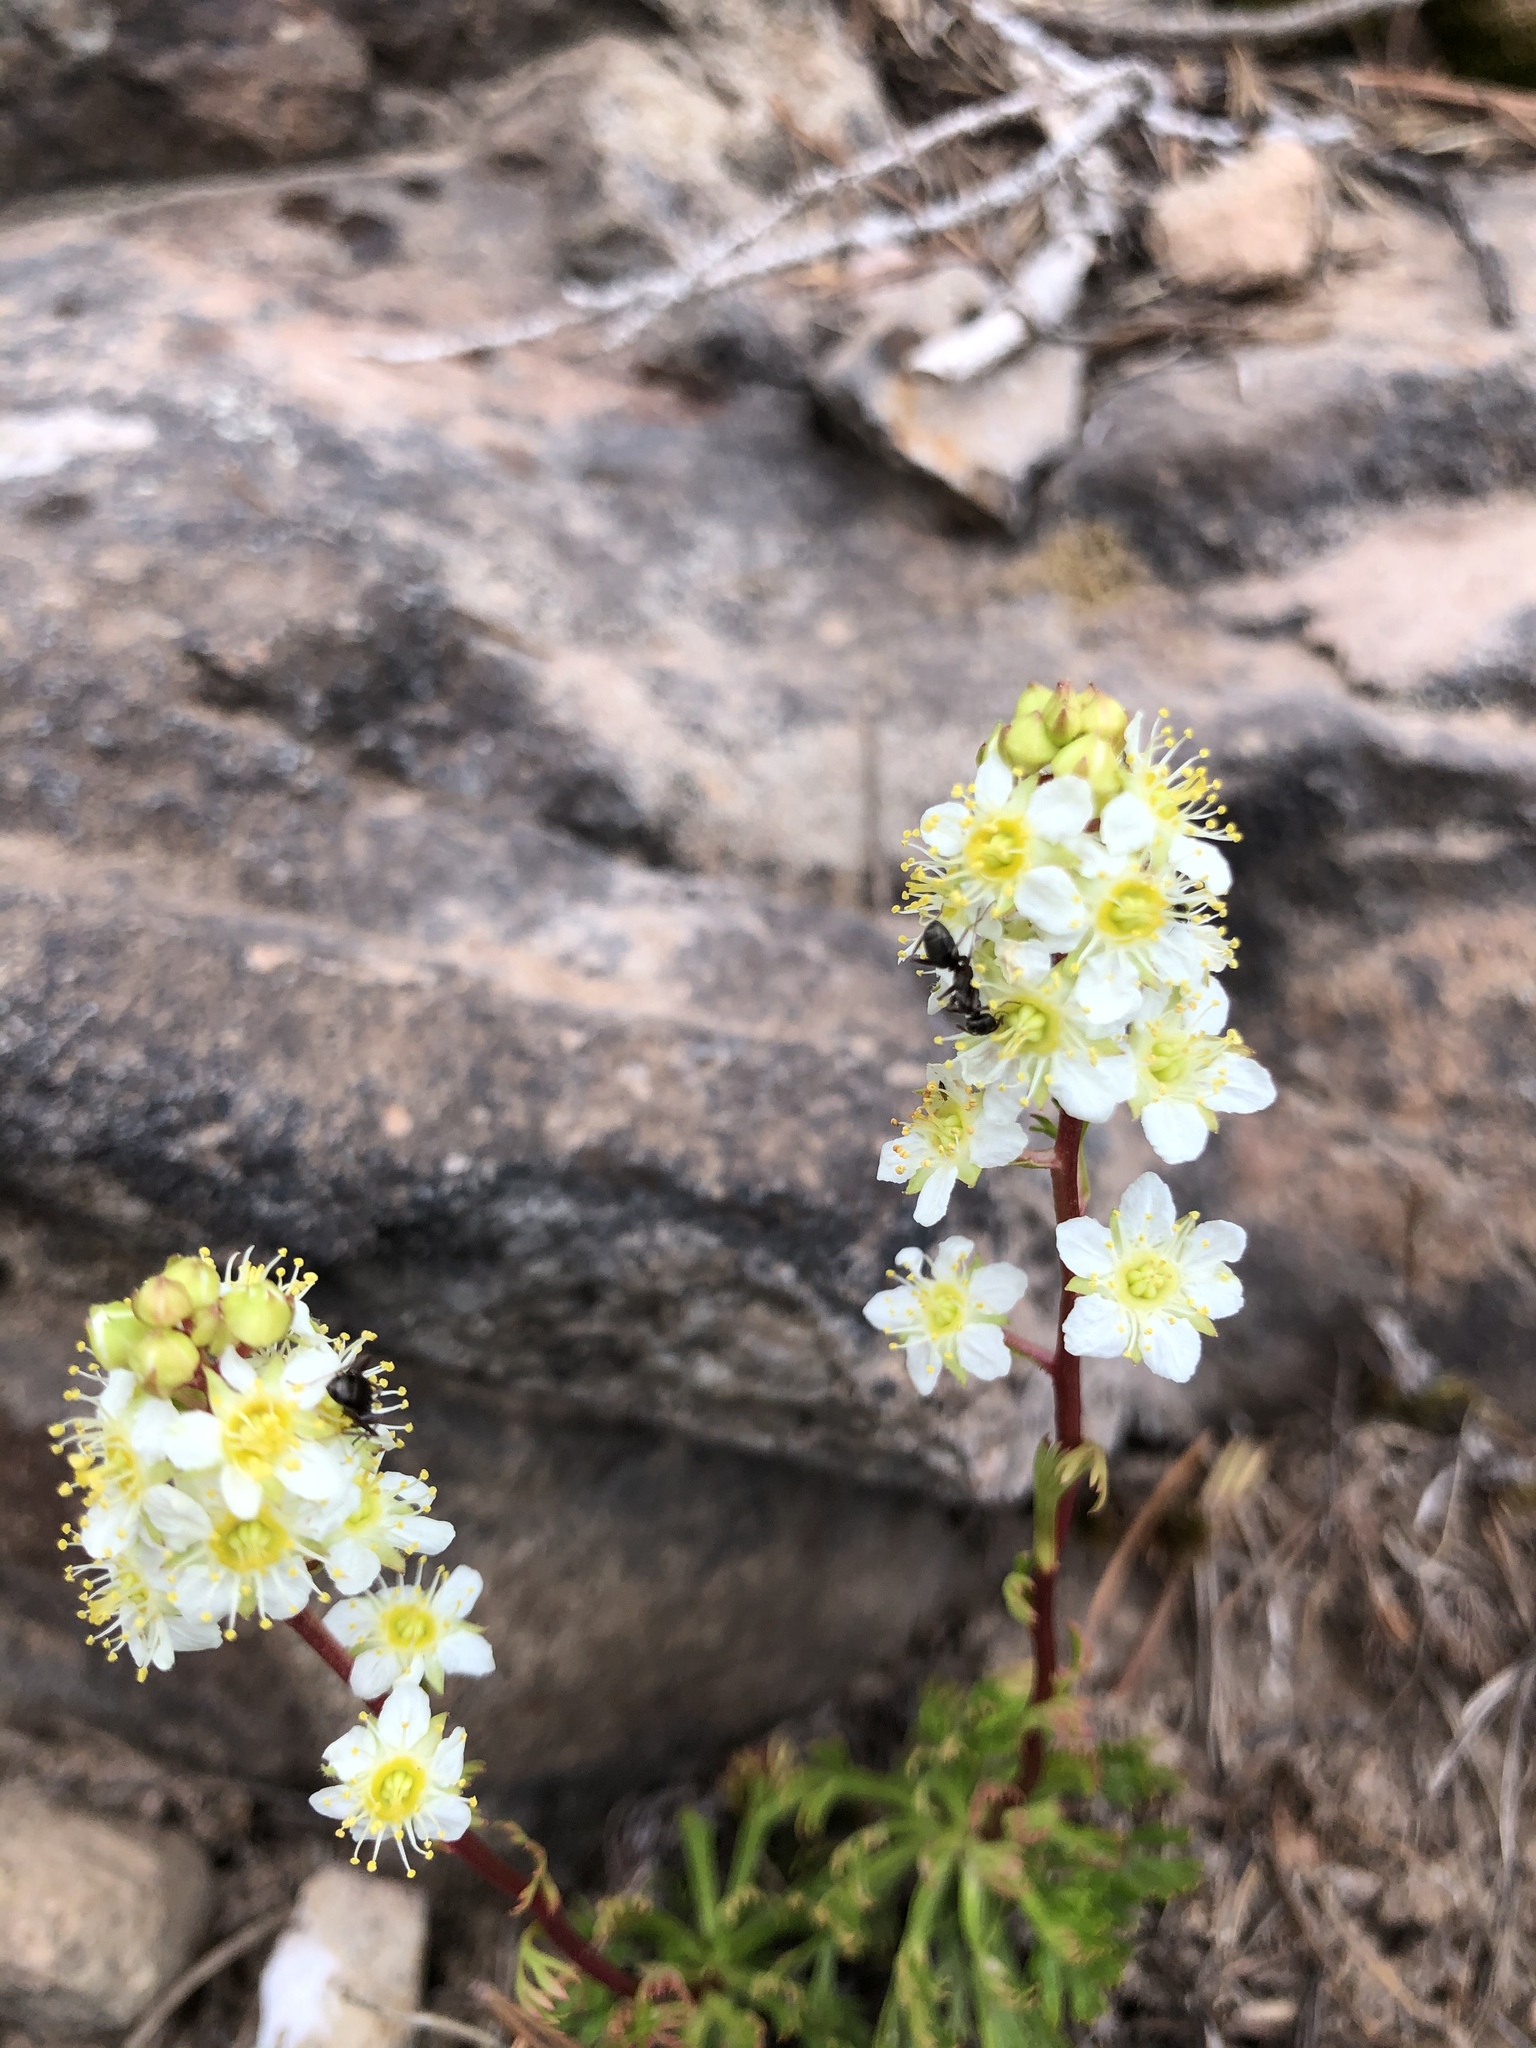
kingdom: Plantae
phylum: Tracheophyta
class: Magnoliopsida
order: Rosales
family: Rosaceae
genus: Luetkea
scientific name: Luetkea pectinata
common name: Partridgefoot
